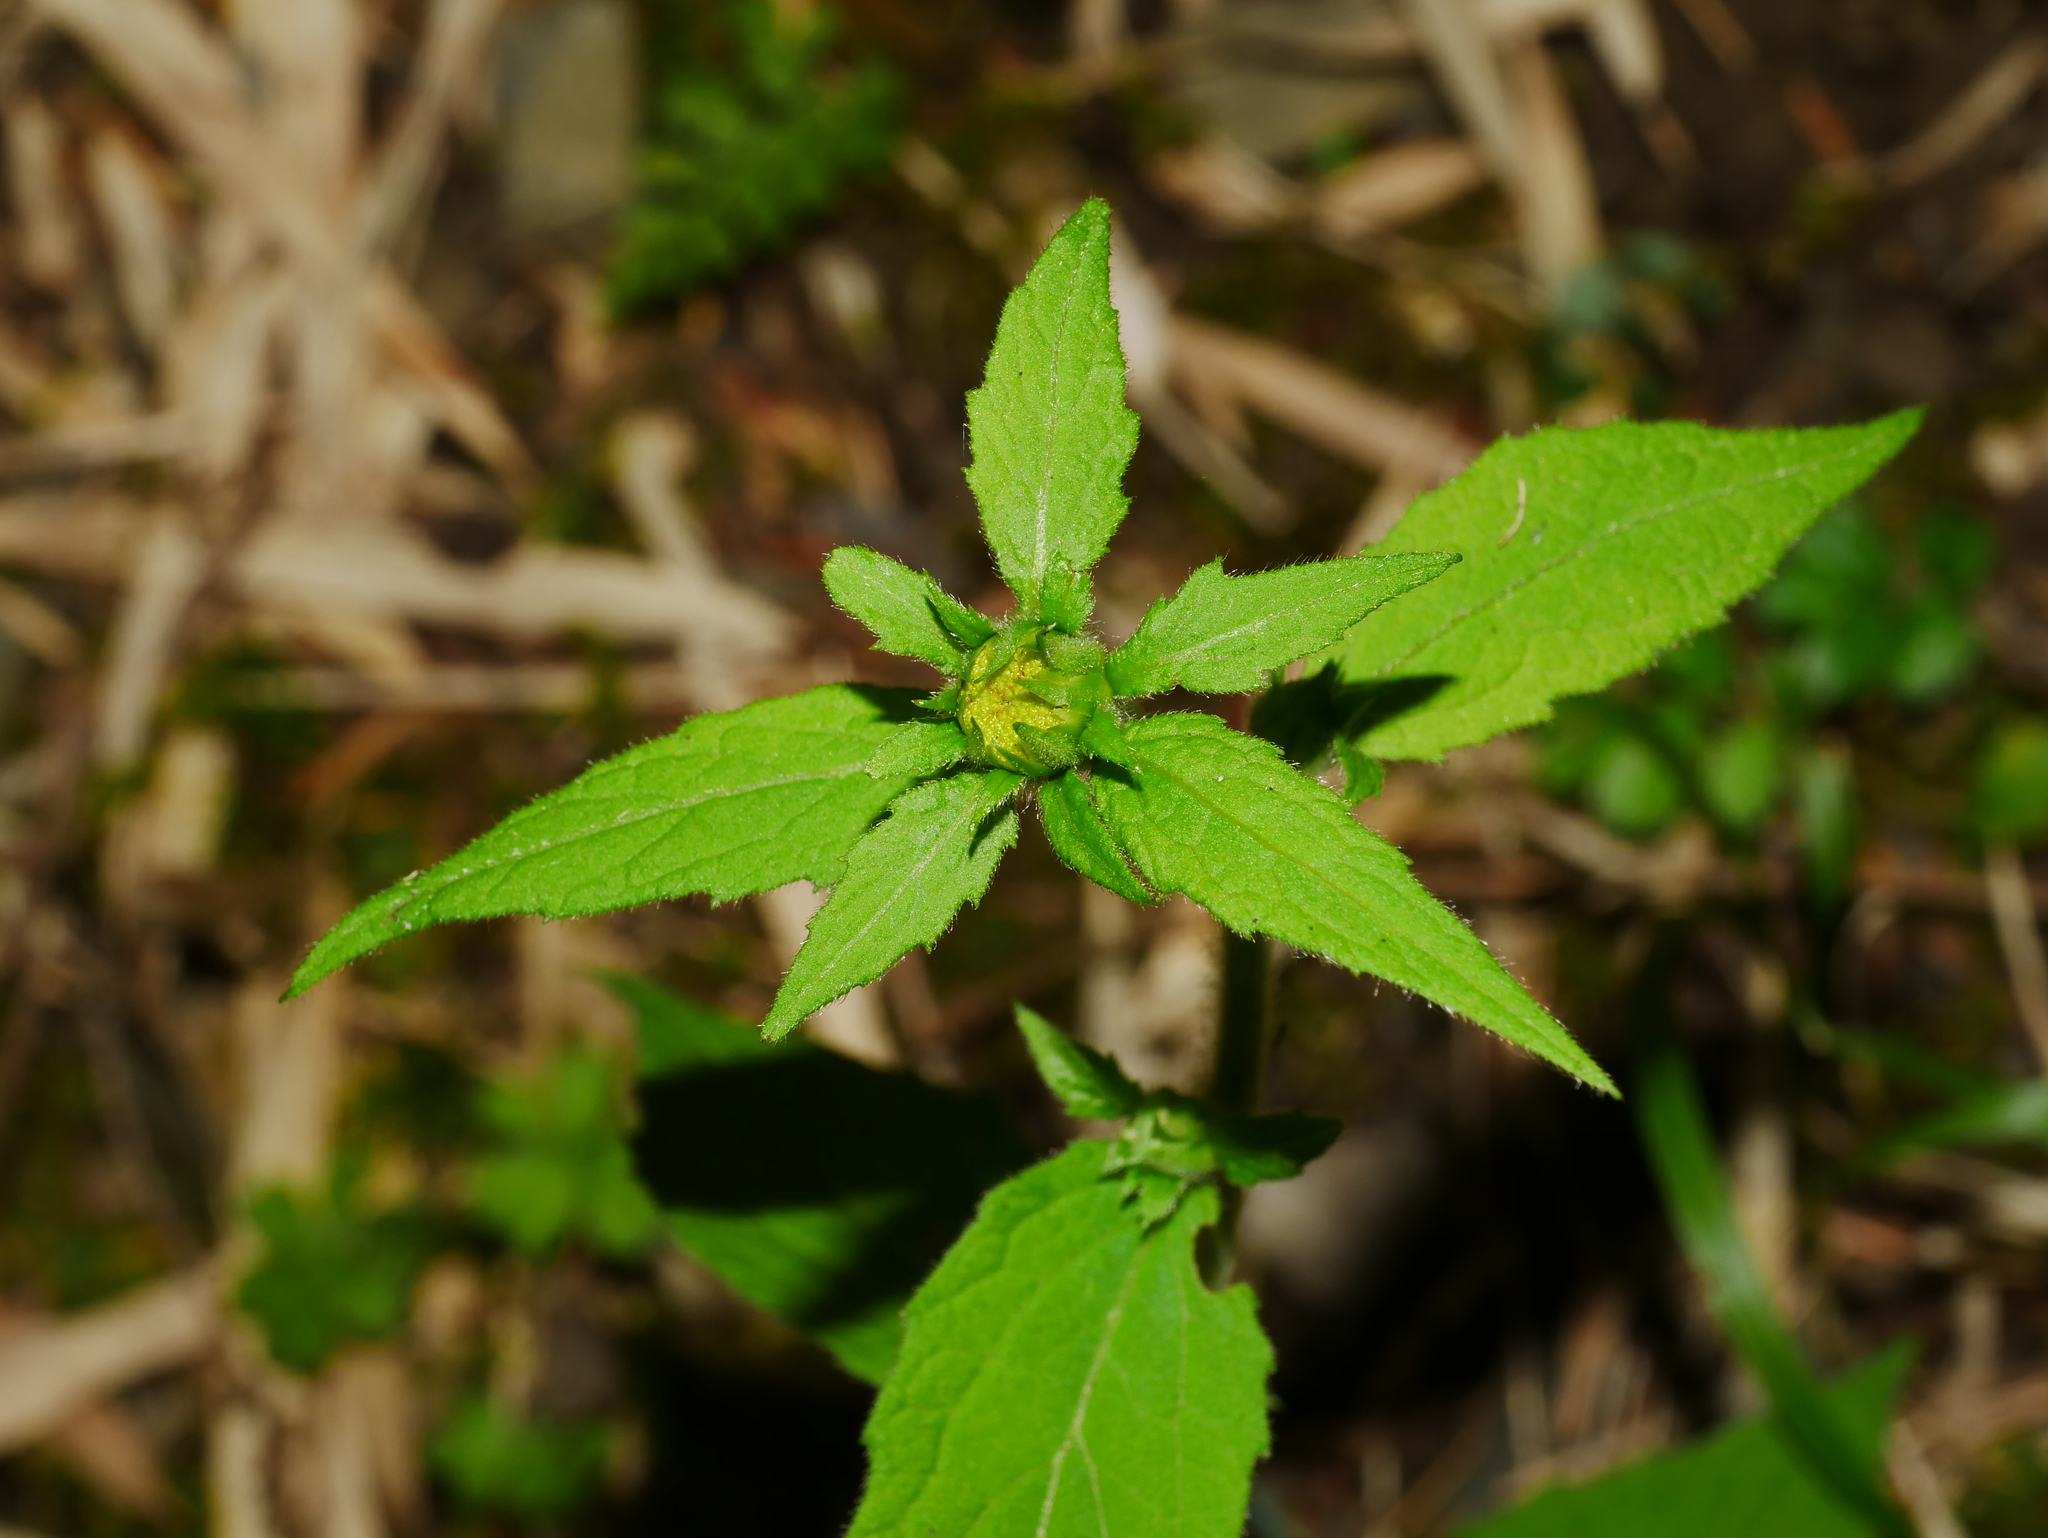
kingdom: Plantae
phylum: Tracheophyta
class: Magnoliopsida
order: Asterales
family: Asteraceae
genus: Carpesium
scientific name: Carpesium nepalense
